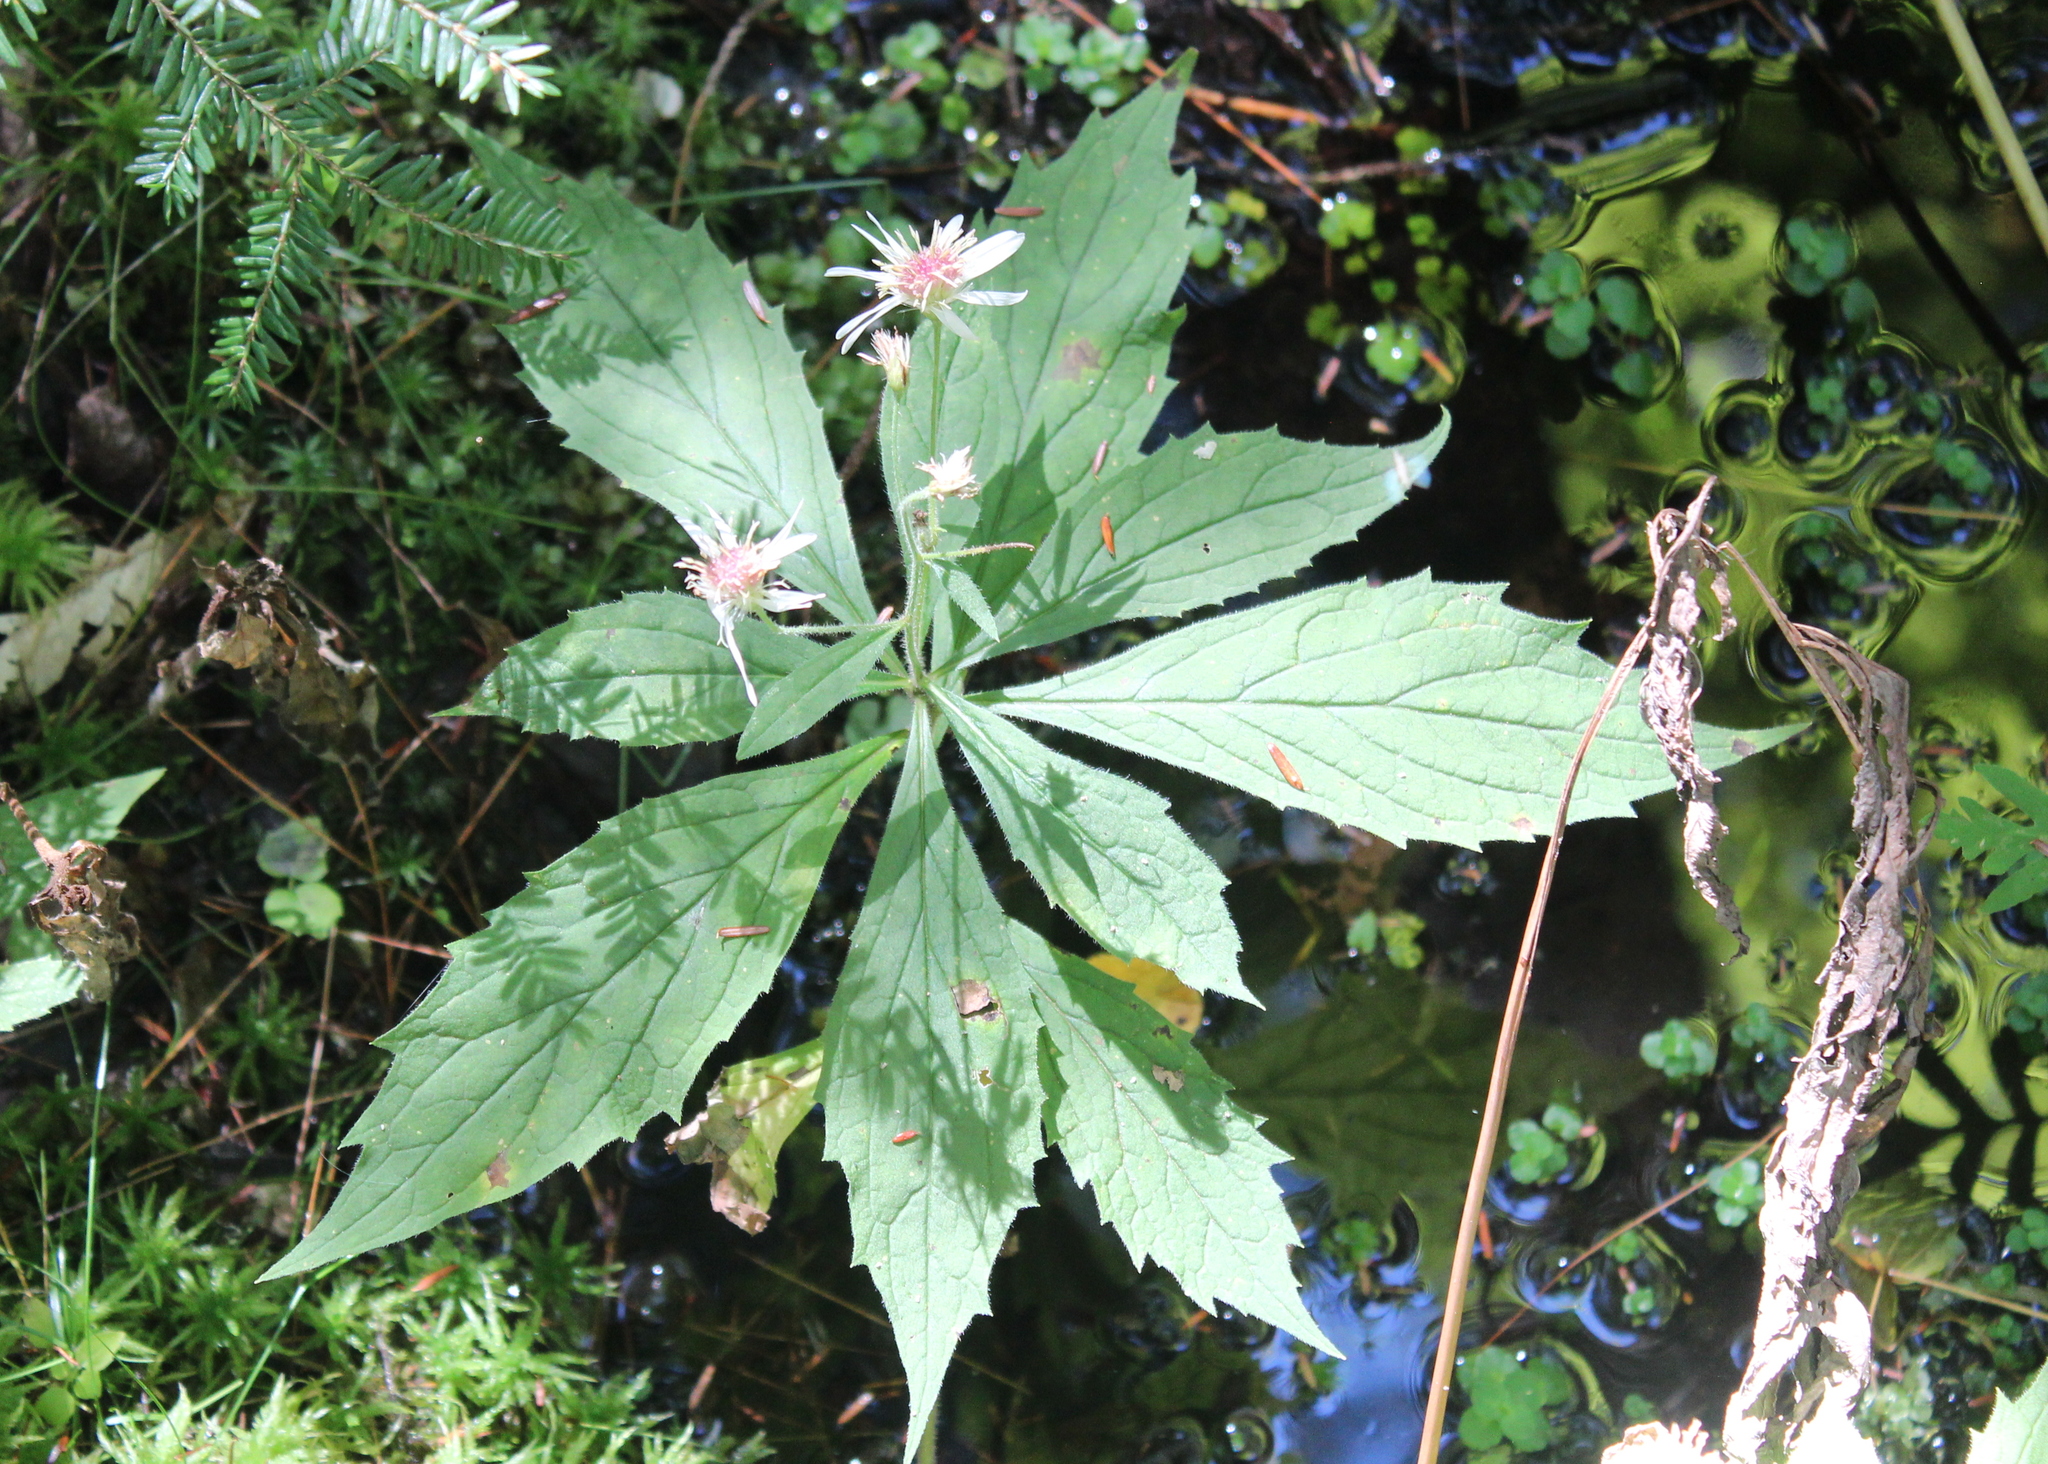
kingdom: Plantae
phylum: Tracheophyta
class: Magnoliopsida
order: Asterales
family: Asteraceae
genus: Oclemena
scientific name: Oclemena acuminata
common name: Mountain aster
